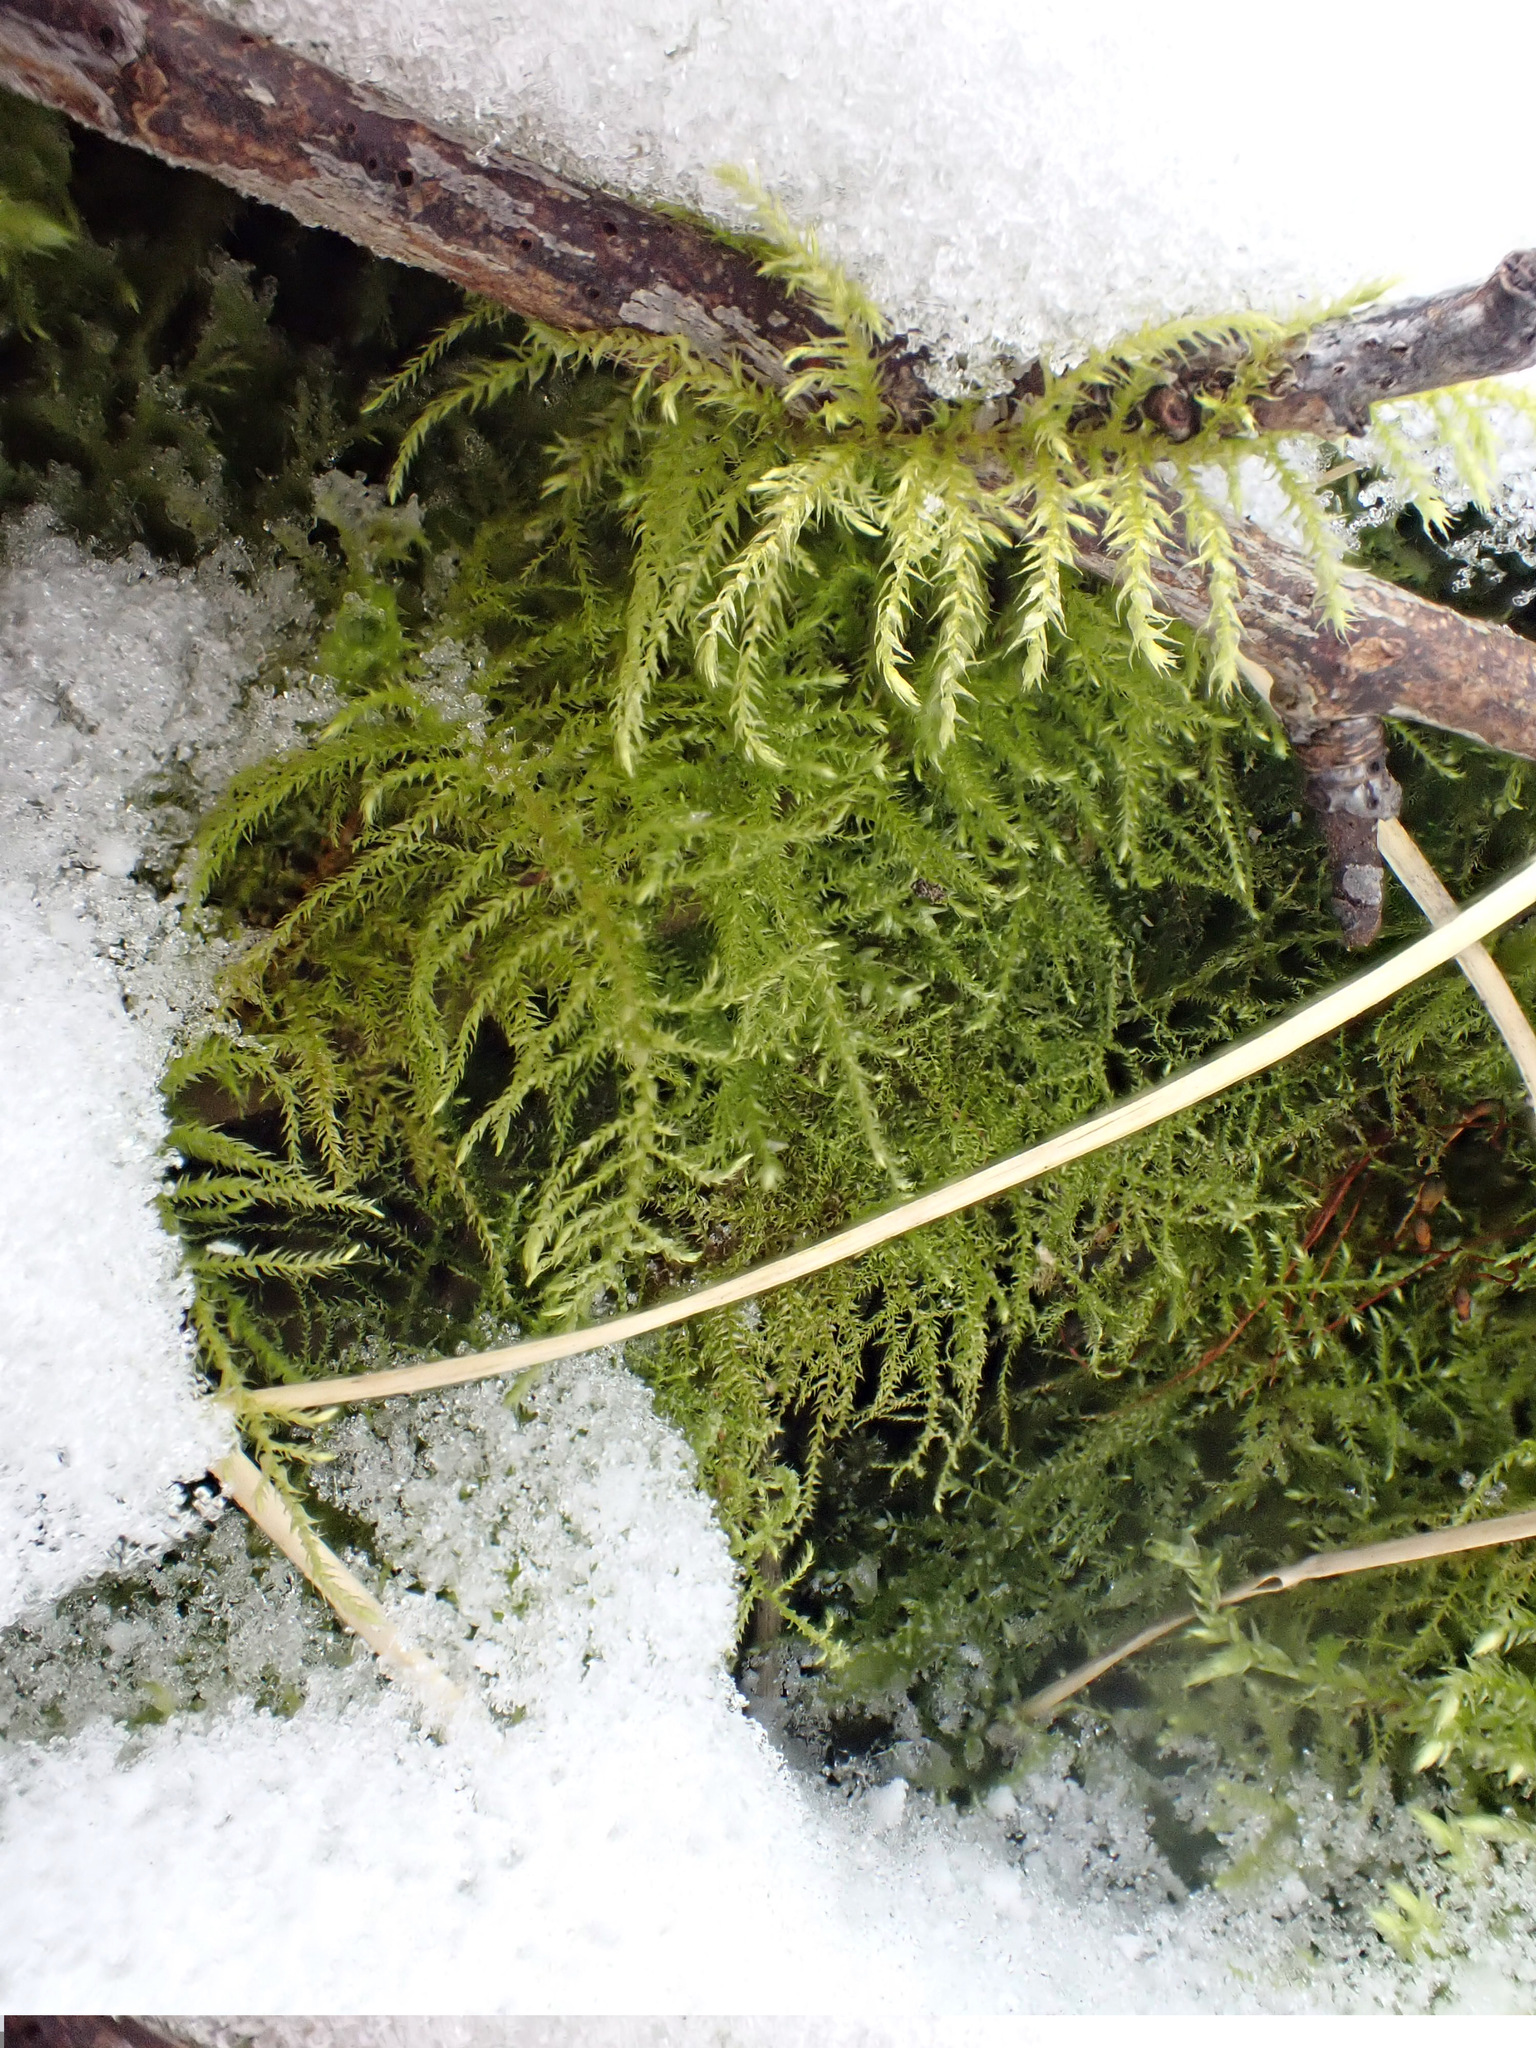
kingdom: Plantae
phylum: Bryophyta
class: Bryopsida
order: Hypnales
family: Brachytheciaceae
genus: Kindbergia
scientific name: Kindbergia praelonga
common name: Slender beaked moss
